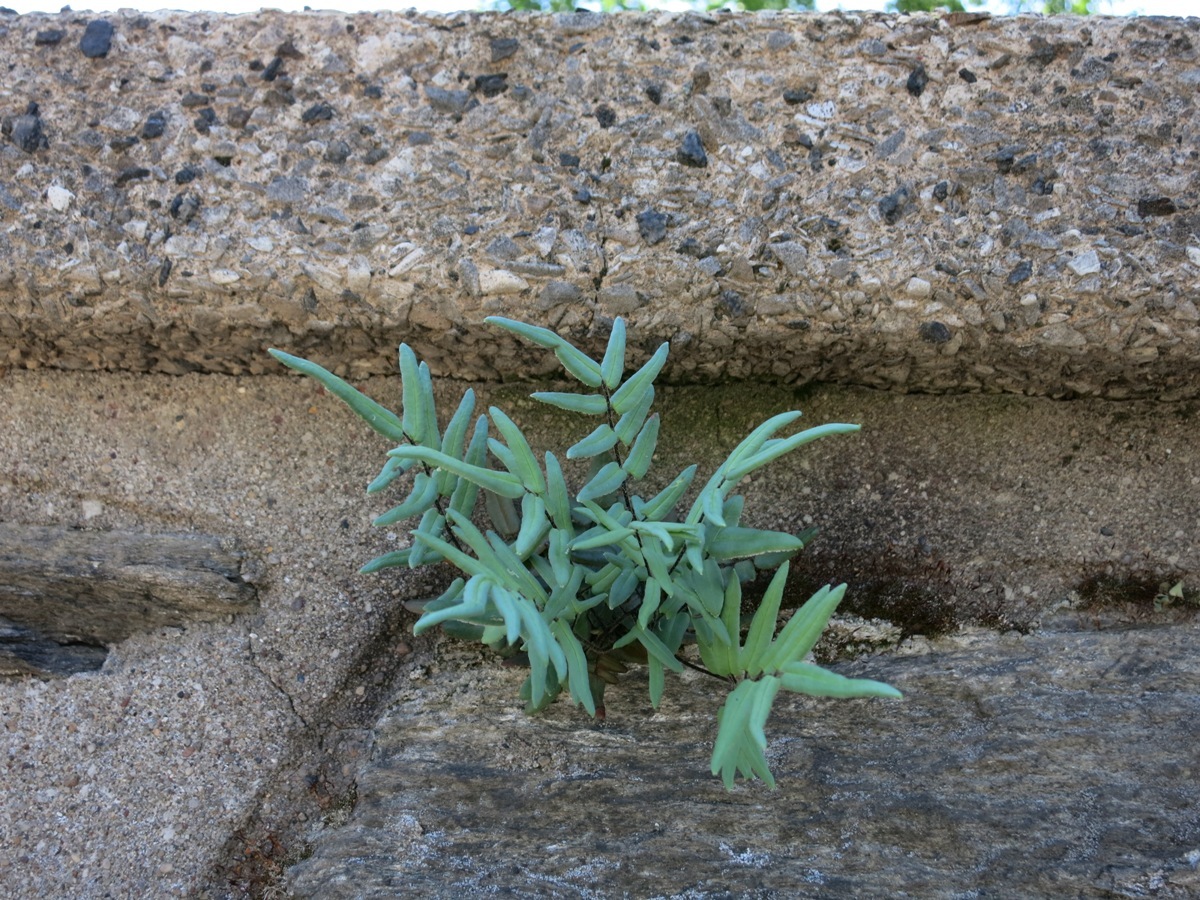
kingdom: Plantae
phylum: Tracheophyta
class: Polypodiopsida
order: Polypodiales
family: Pteridaceae
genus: Pellaea
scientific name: Pellaea atropurpurea
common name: Hairy cliffbrake
